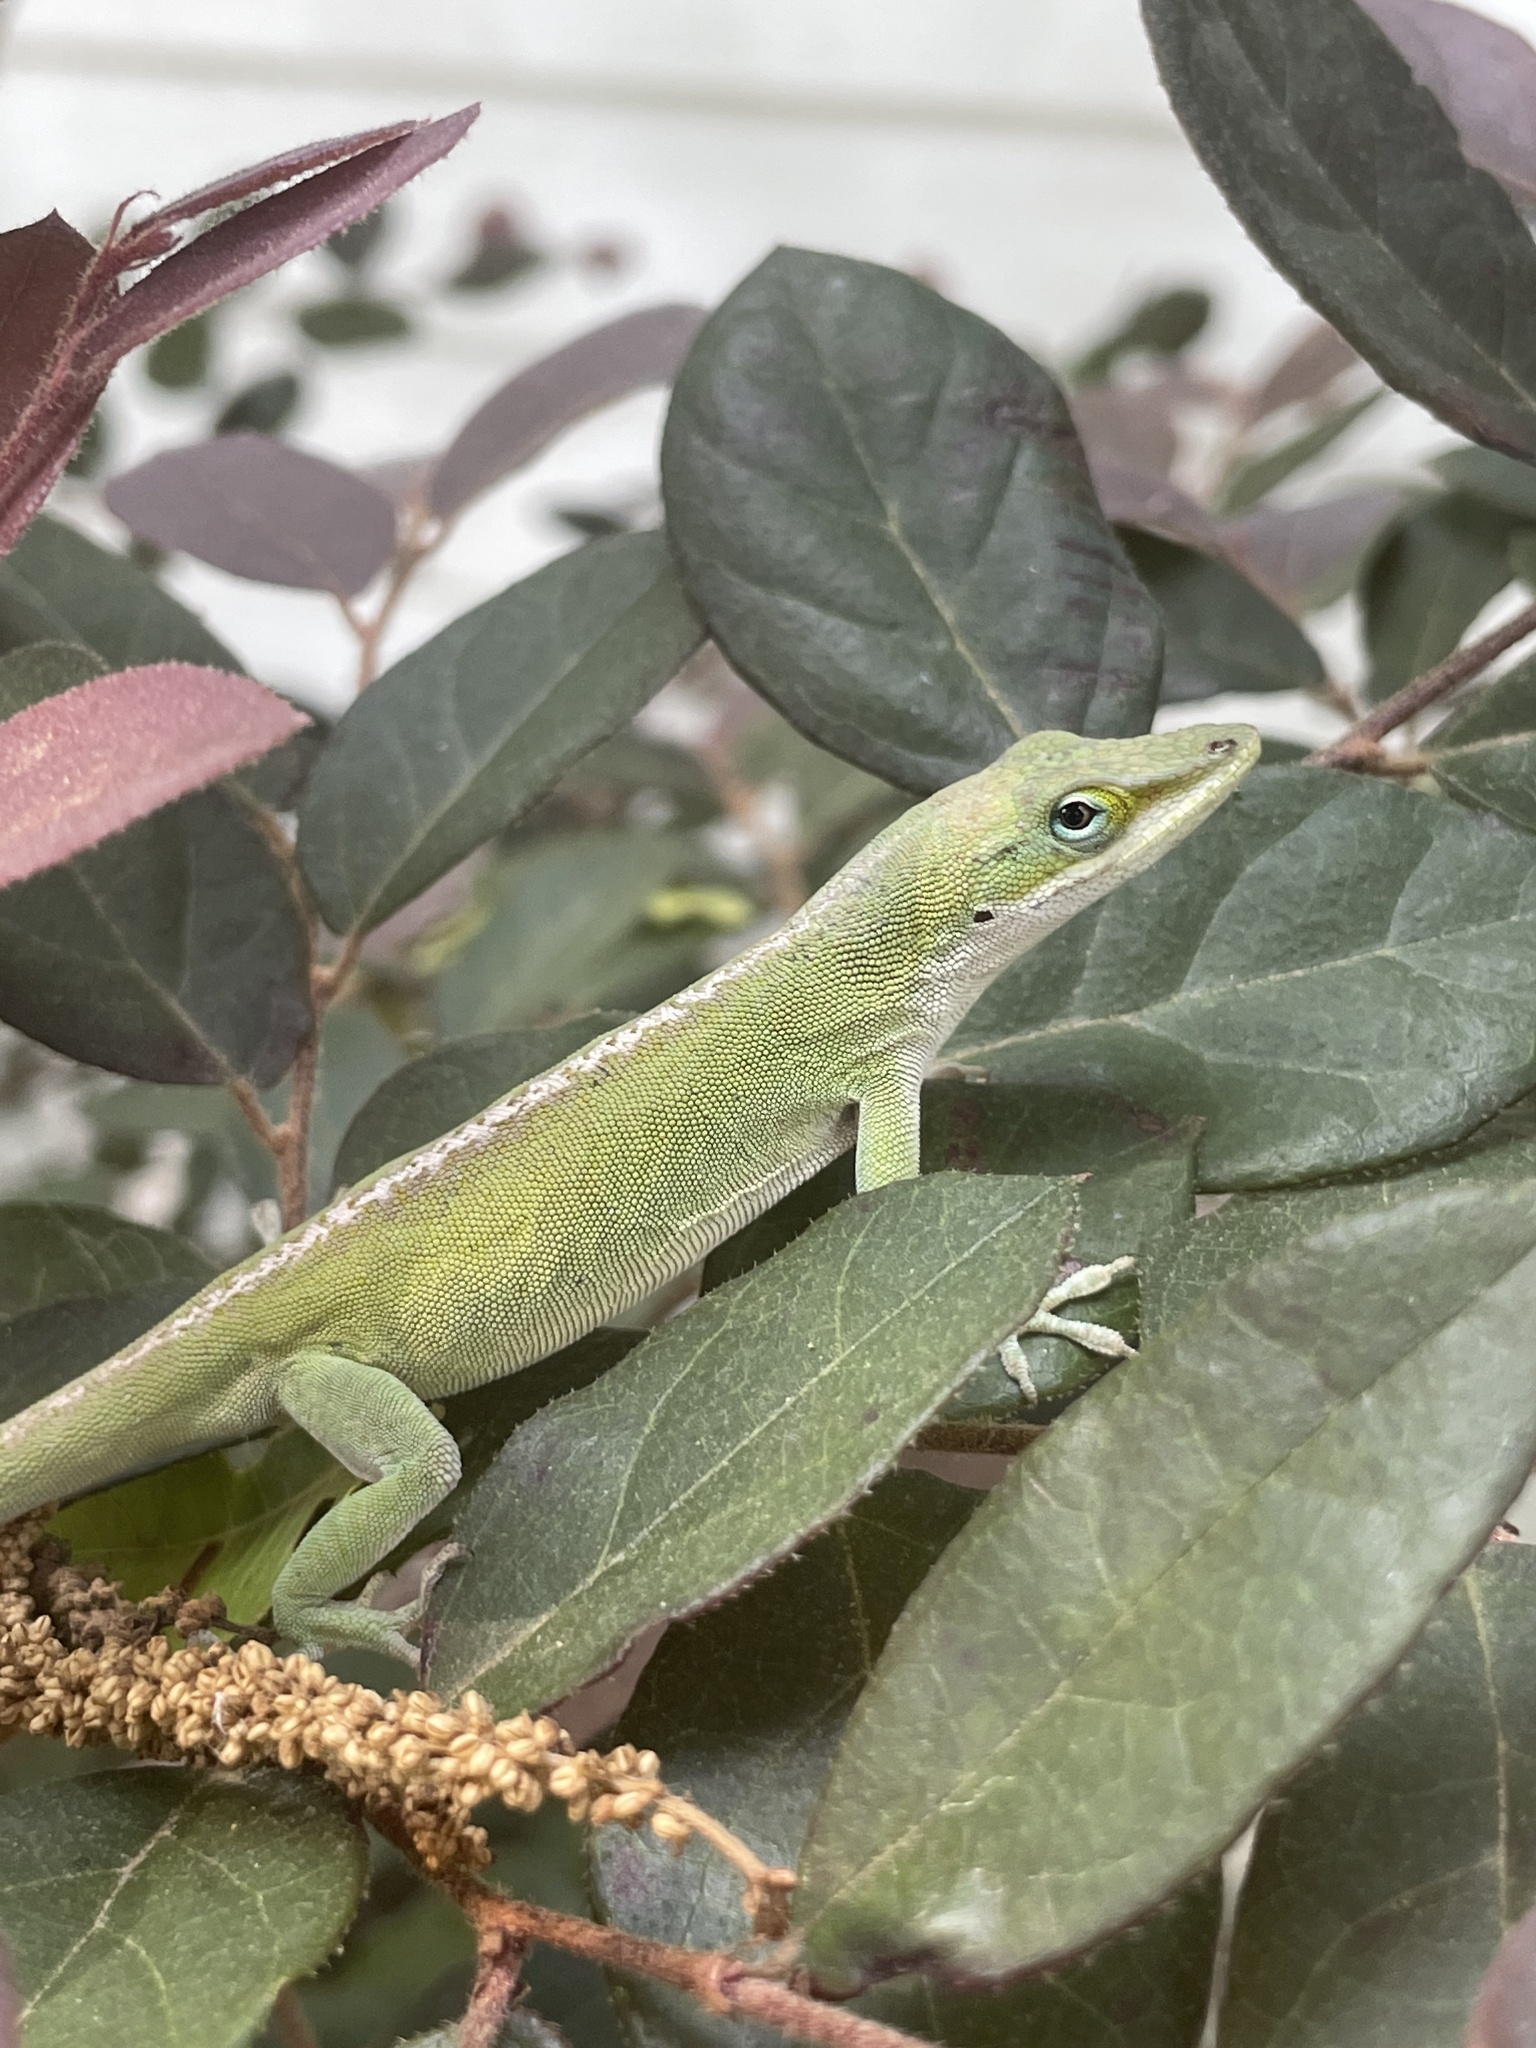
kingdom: Animalia
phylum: Chordata
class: Squamata
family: Dactyloidae
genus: Anolis
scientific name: Anolis carolinensis
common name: Green anole
